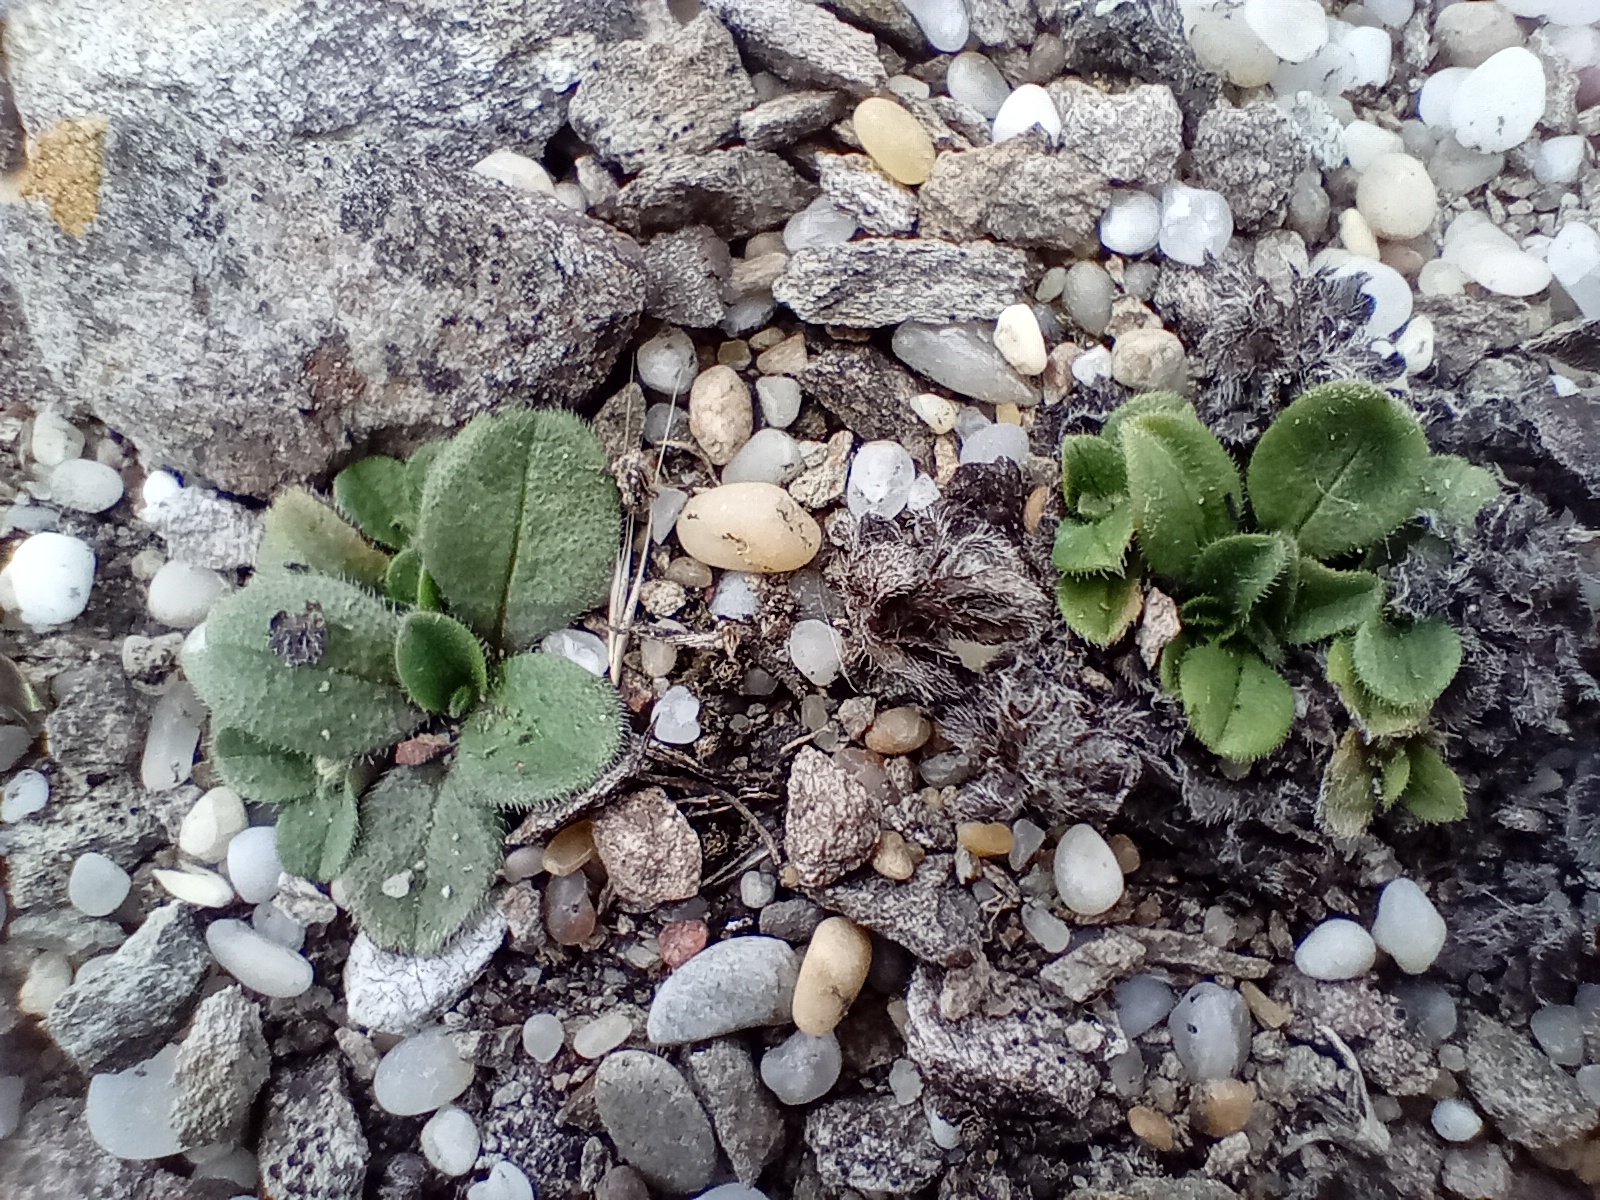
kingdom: Plantae
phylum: Tracheophyta
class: Magnoliopsida
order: Boraginales
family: Boraginaceae
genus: Myosotis
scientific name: Myosotis antarctica
